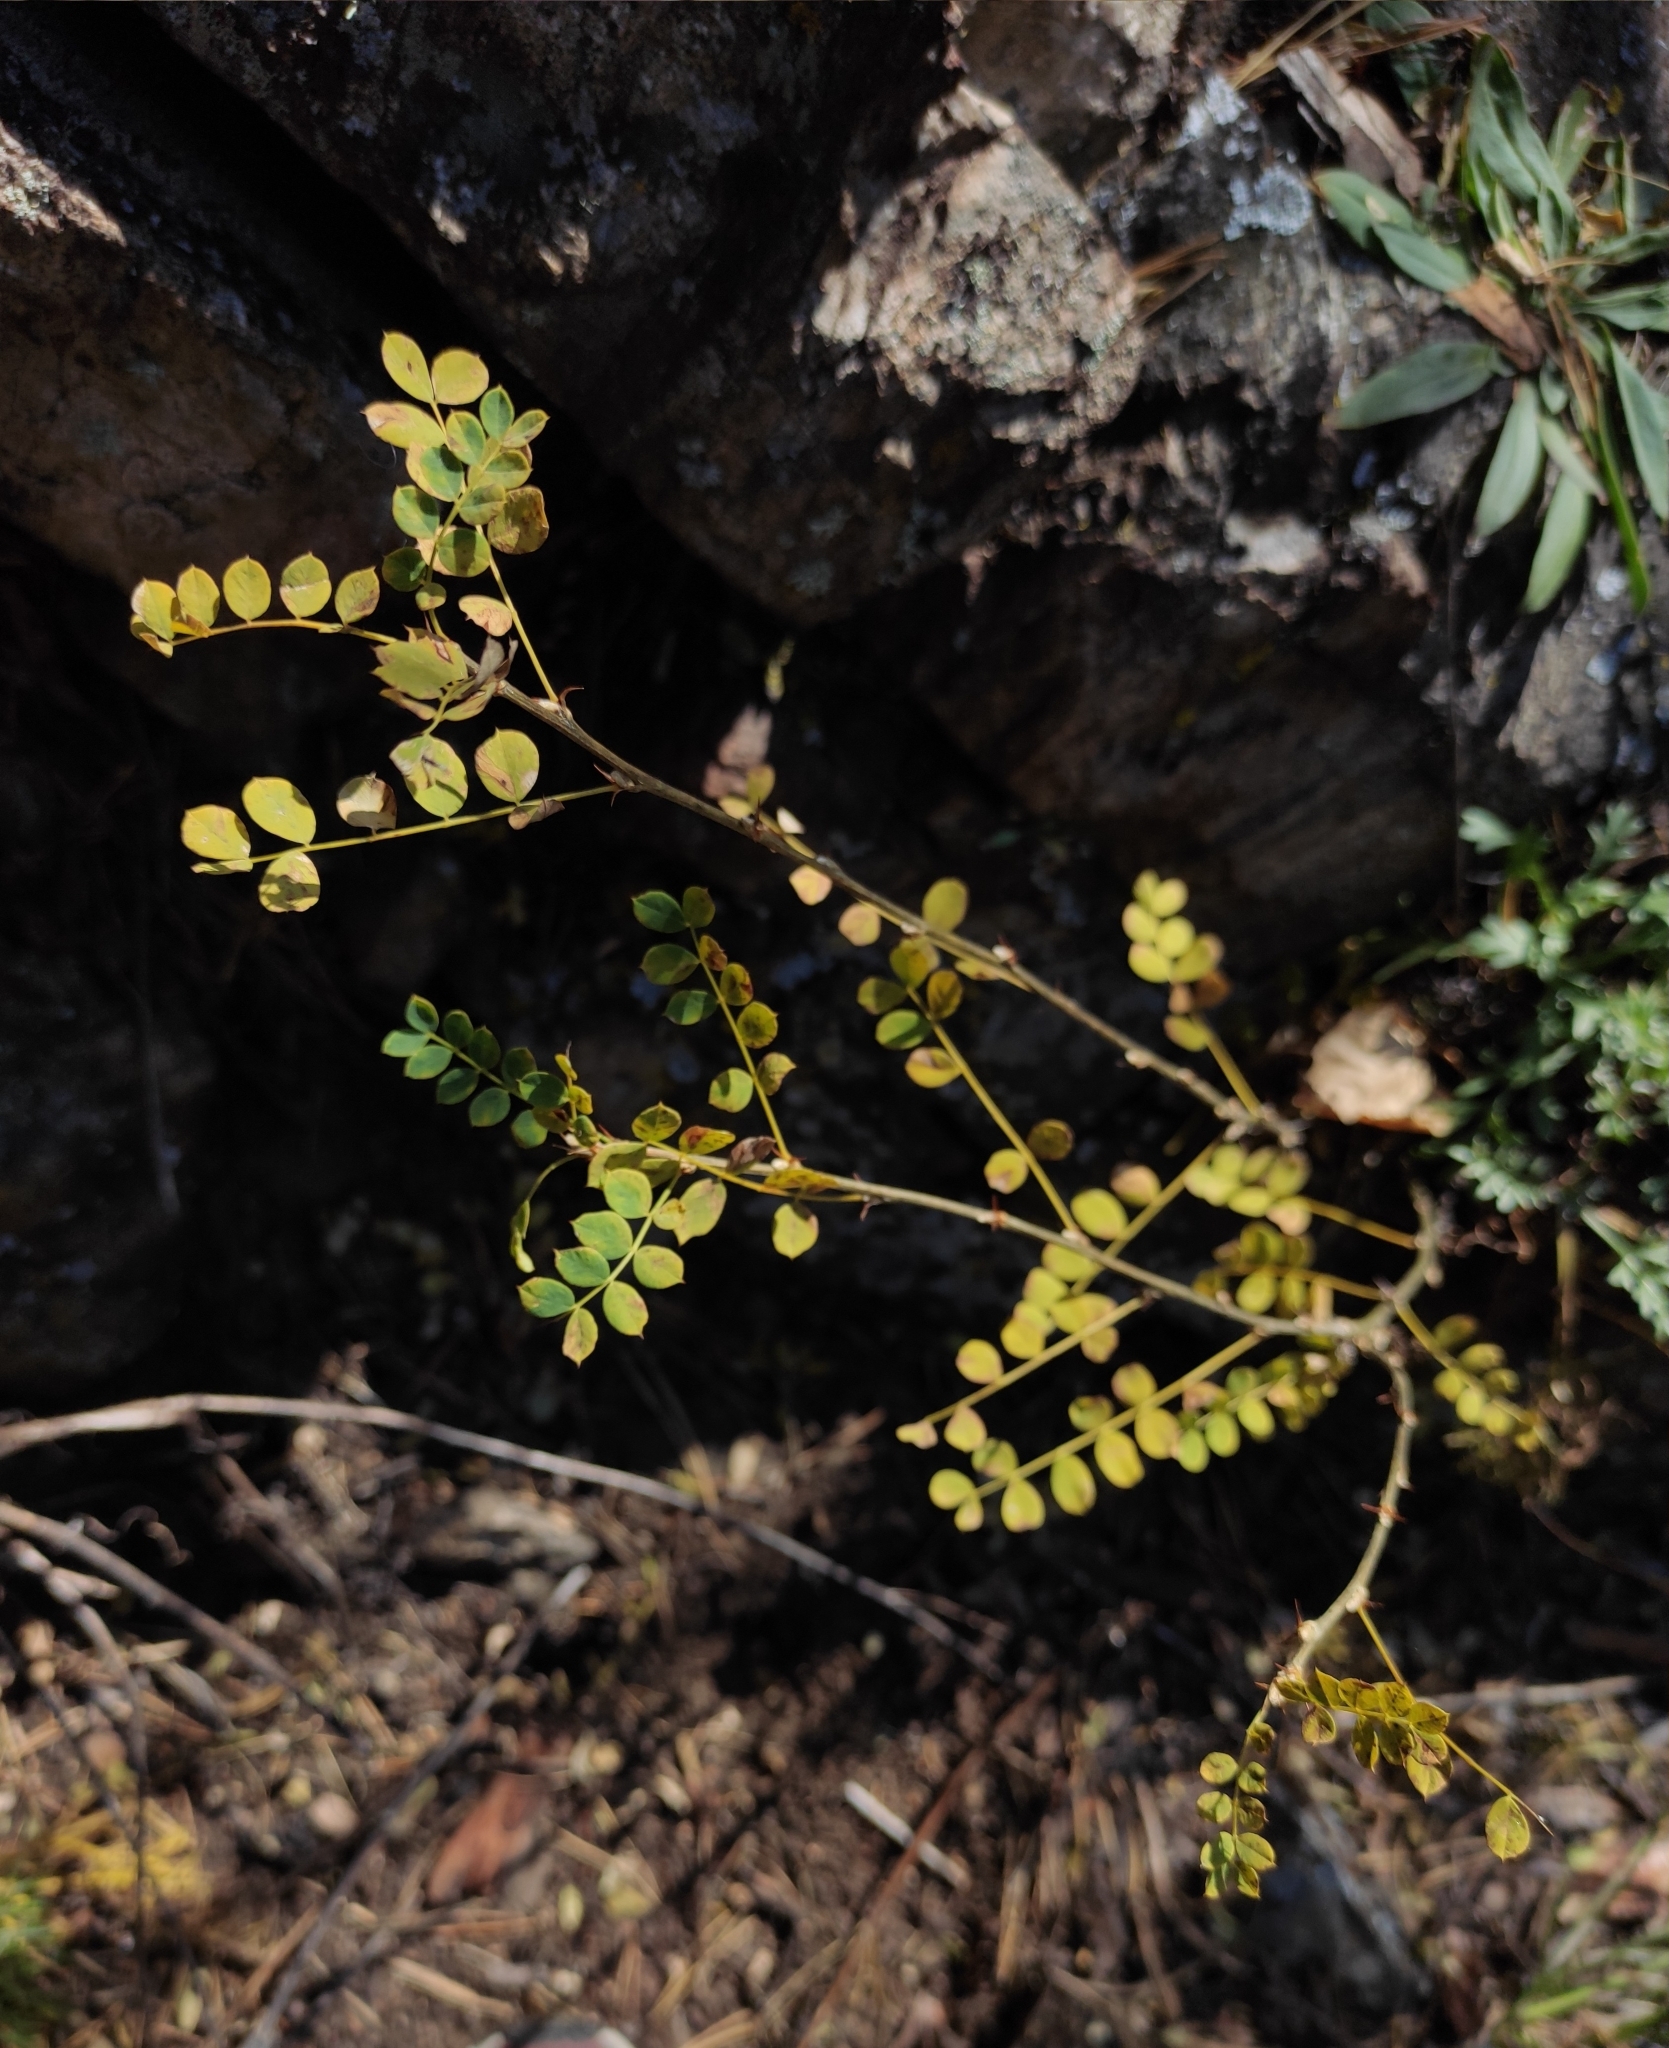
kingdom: Plantae
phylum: Tracheophyta
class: Magnoliopsida
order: Fabales
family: Fabaceae
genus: Caragana
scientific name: Caragana arborescens
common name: Siberian peashrub
